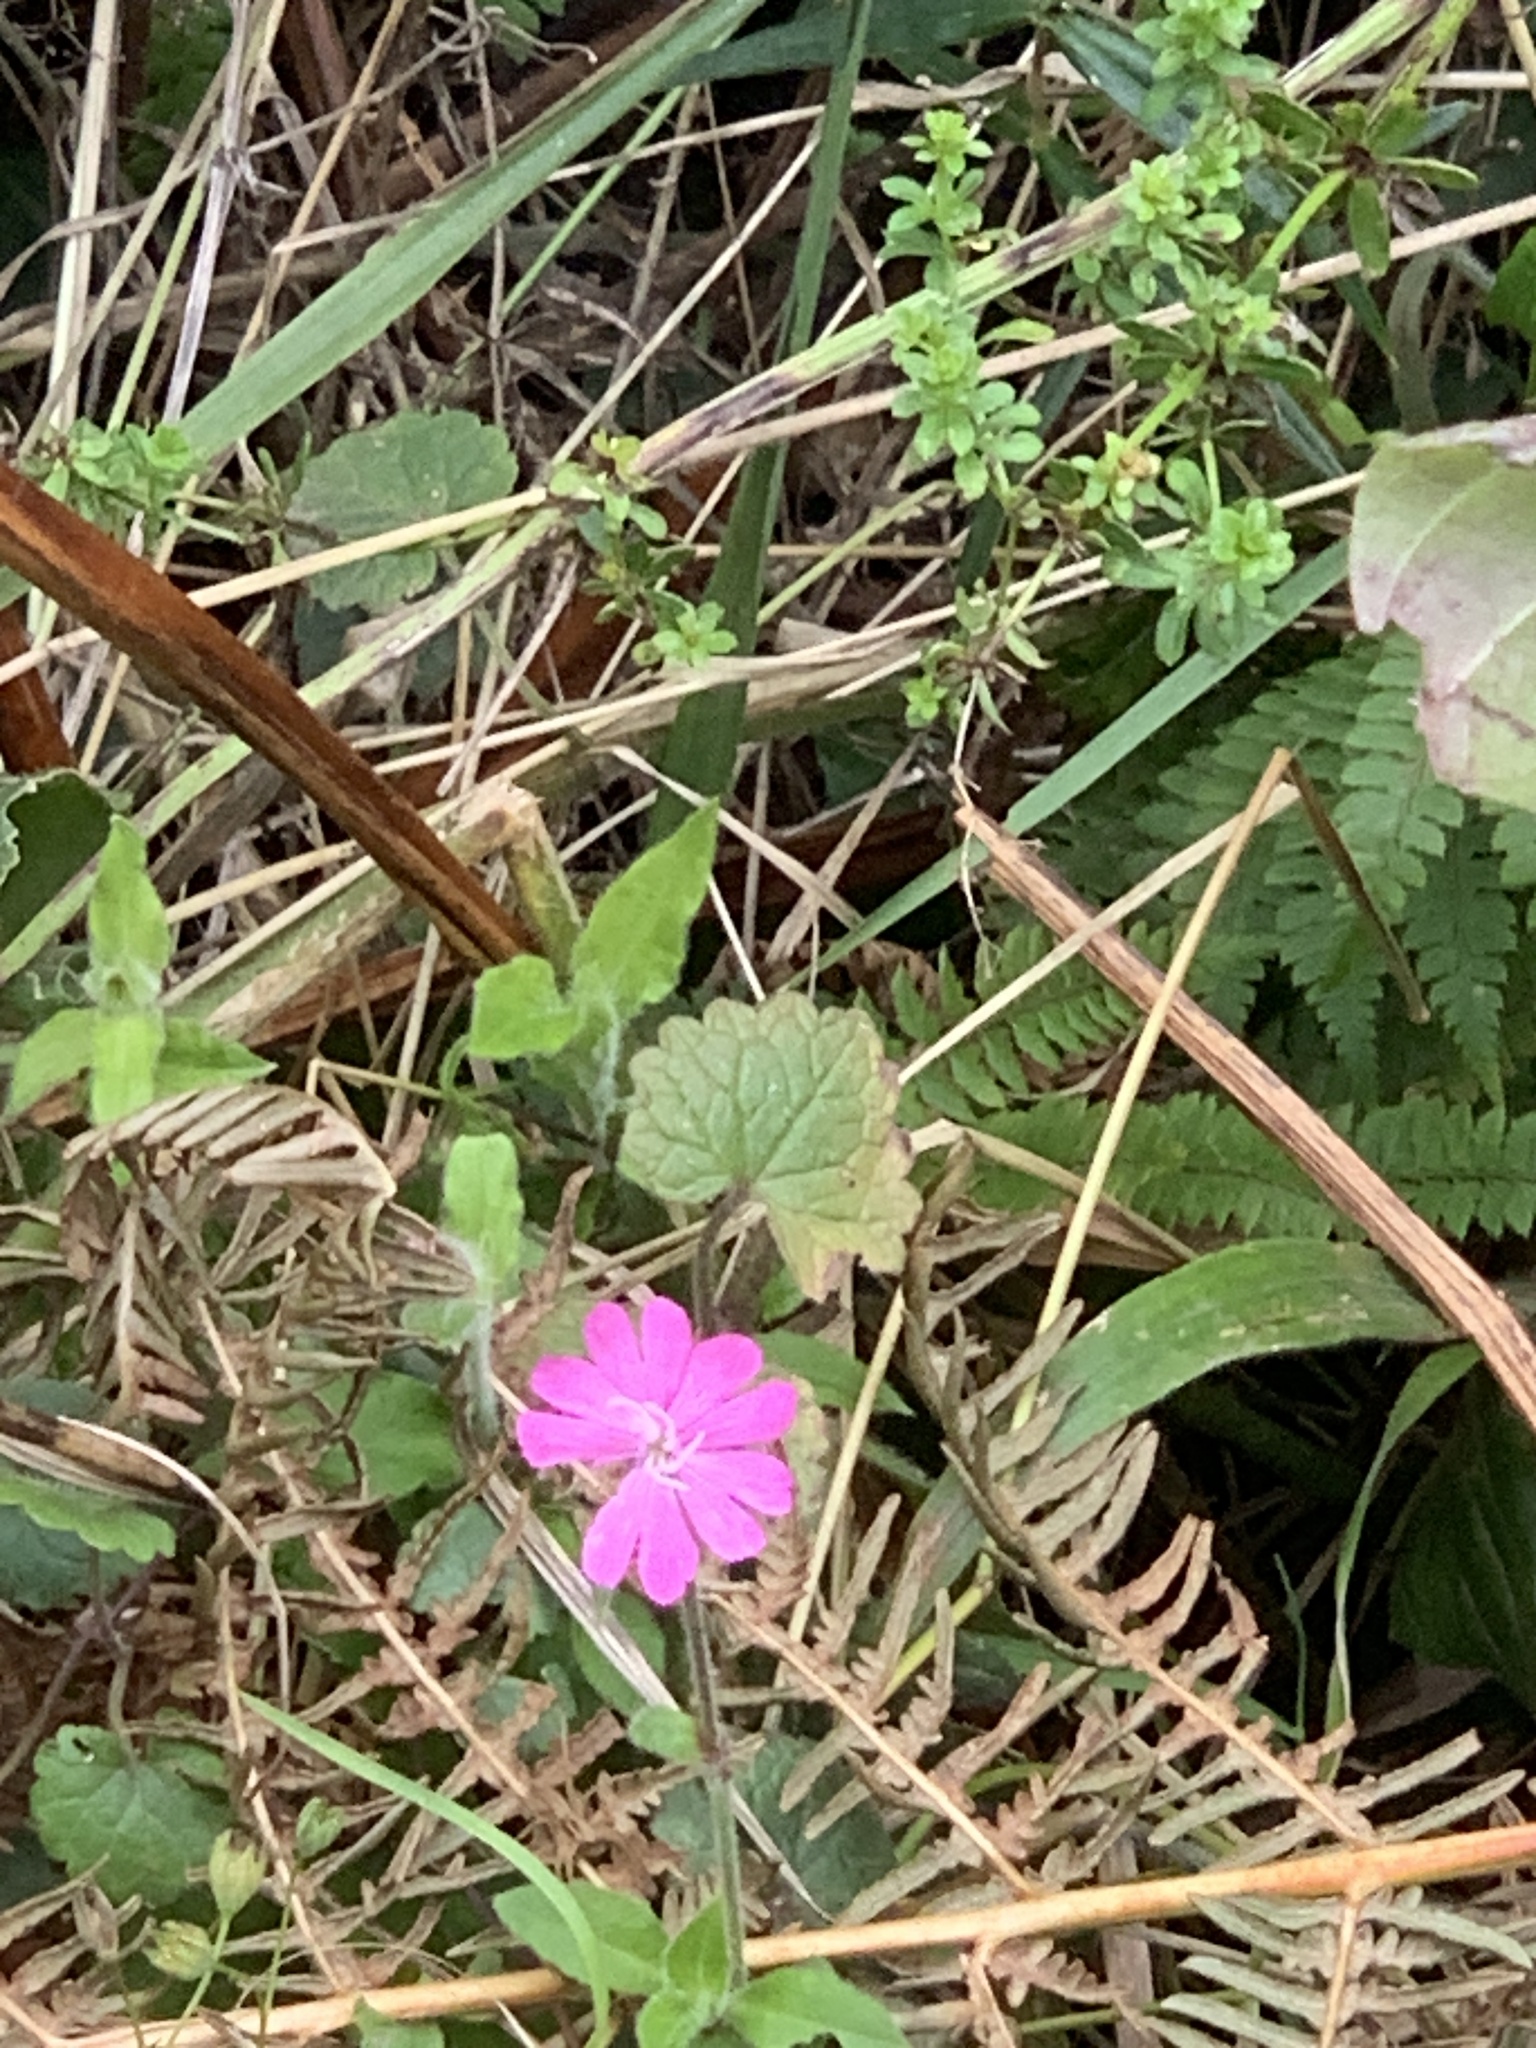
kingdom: Plantae
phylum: Tracheophyta
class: Magnoliopsida
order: Caryophyllales
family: Caryophyllaceae
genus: Silene
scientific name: Silene dioica
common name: Red campion
